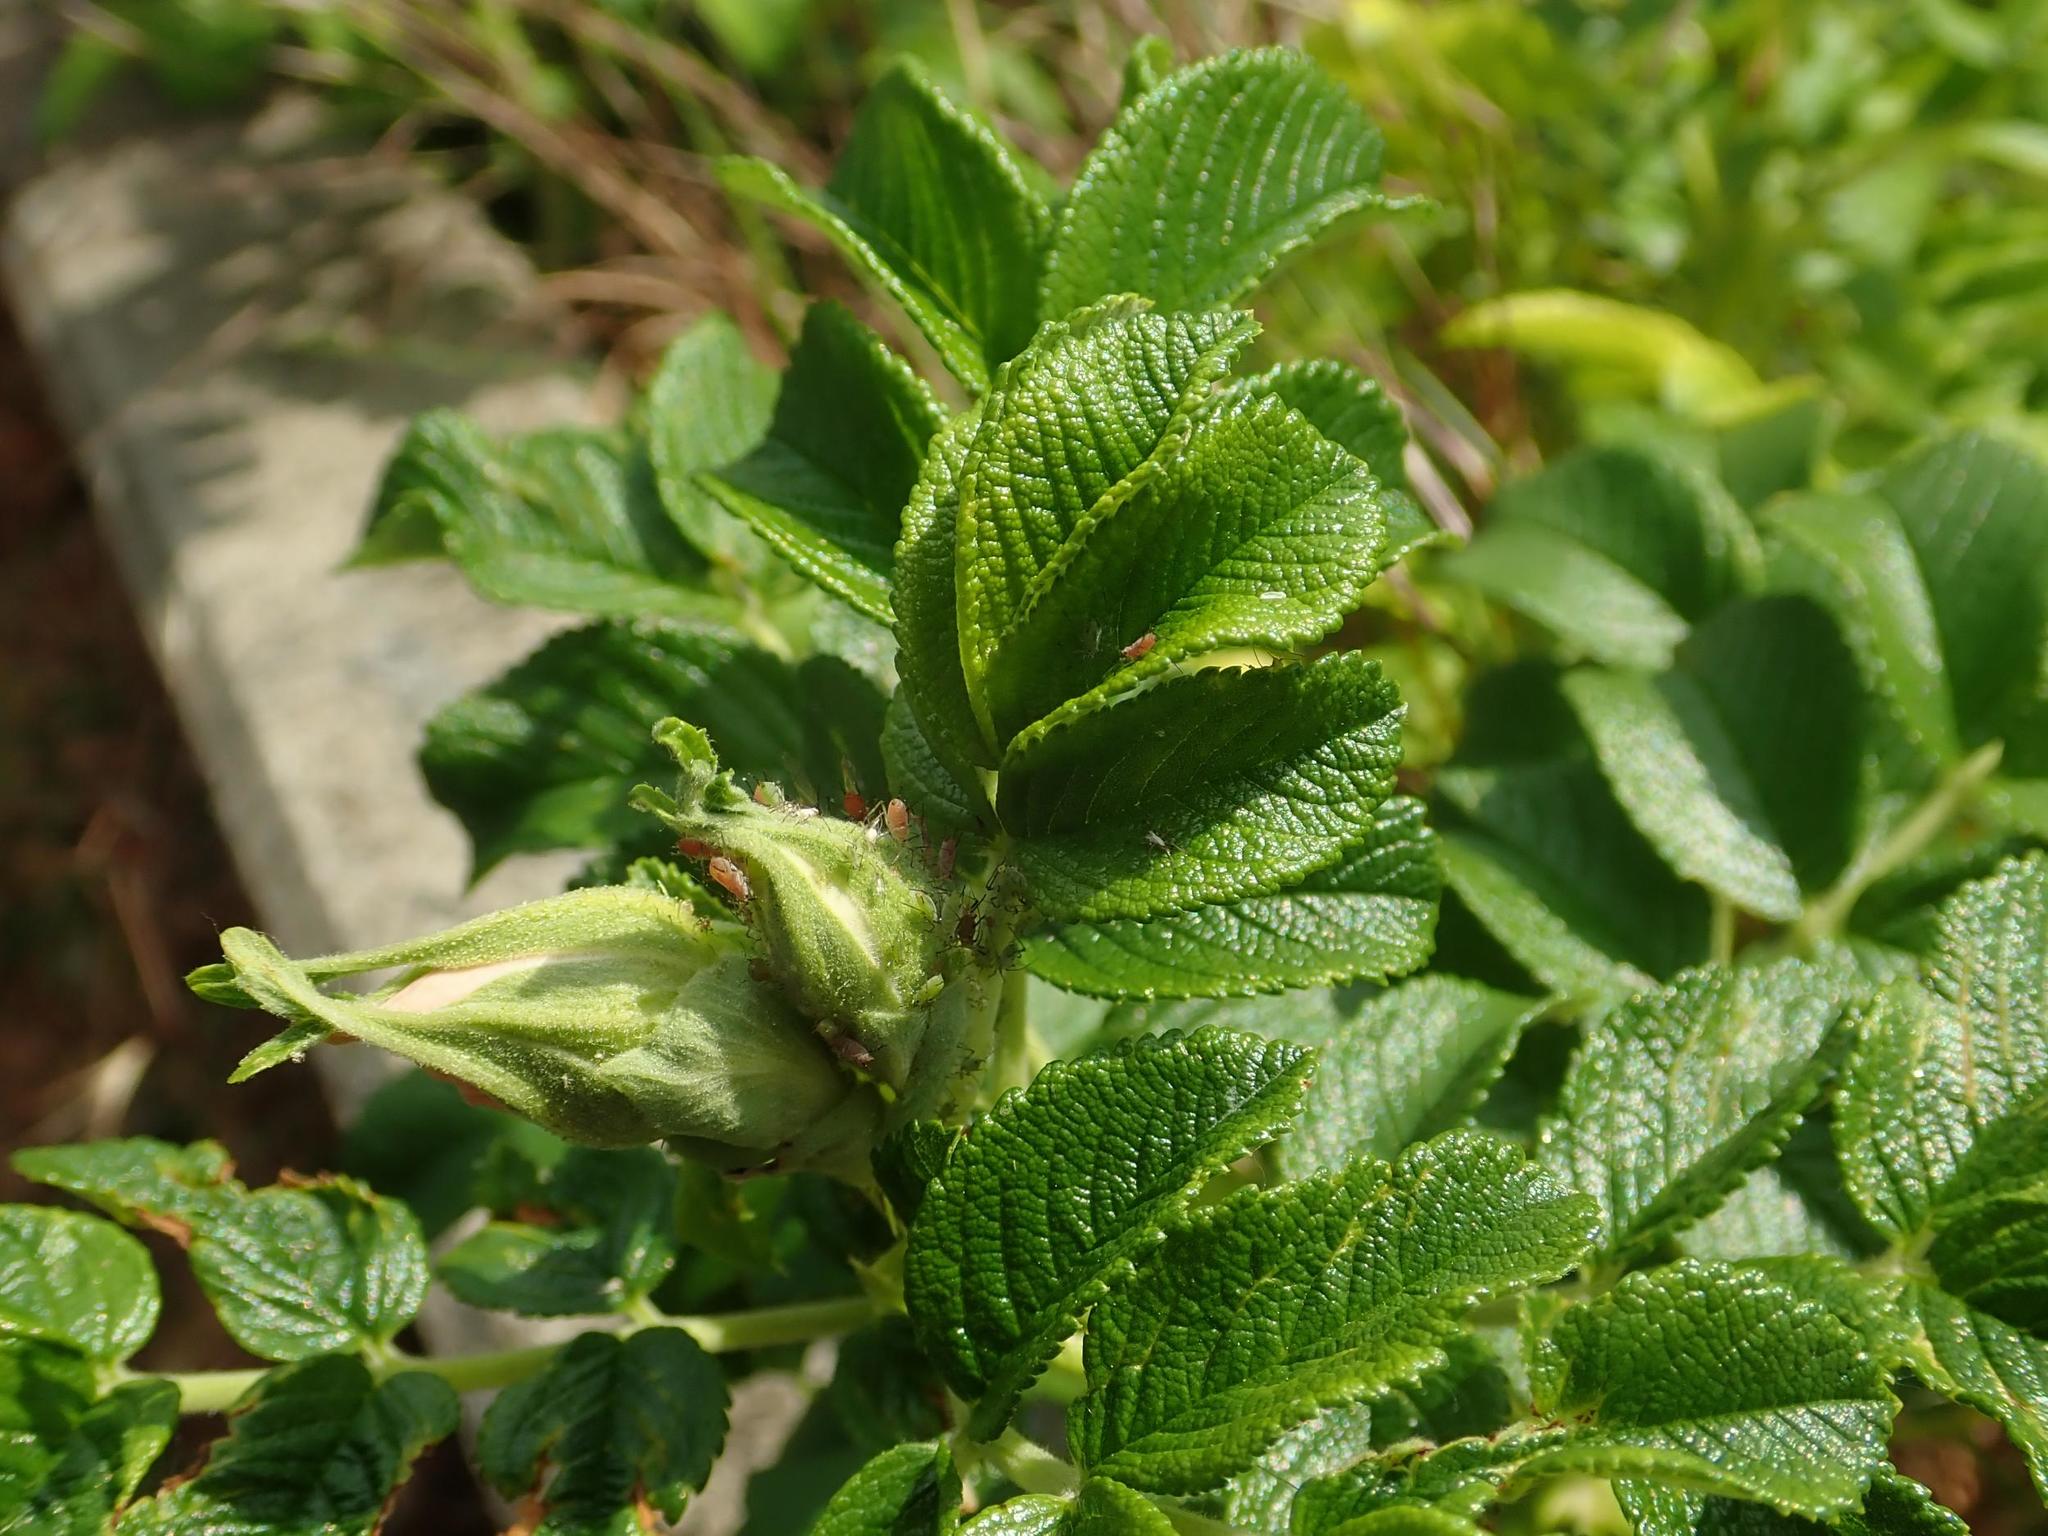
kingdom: Animalia
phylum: Arthropoda
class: Insecta
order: Hemiptera
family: Aphididae
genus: Macrosiphum
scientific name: Macrosiphum rosae
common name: Rose aphid
